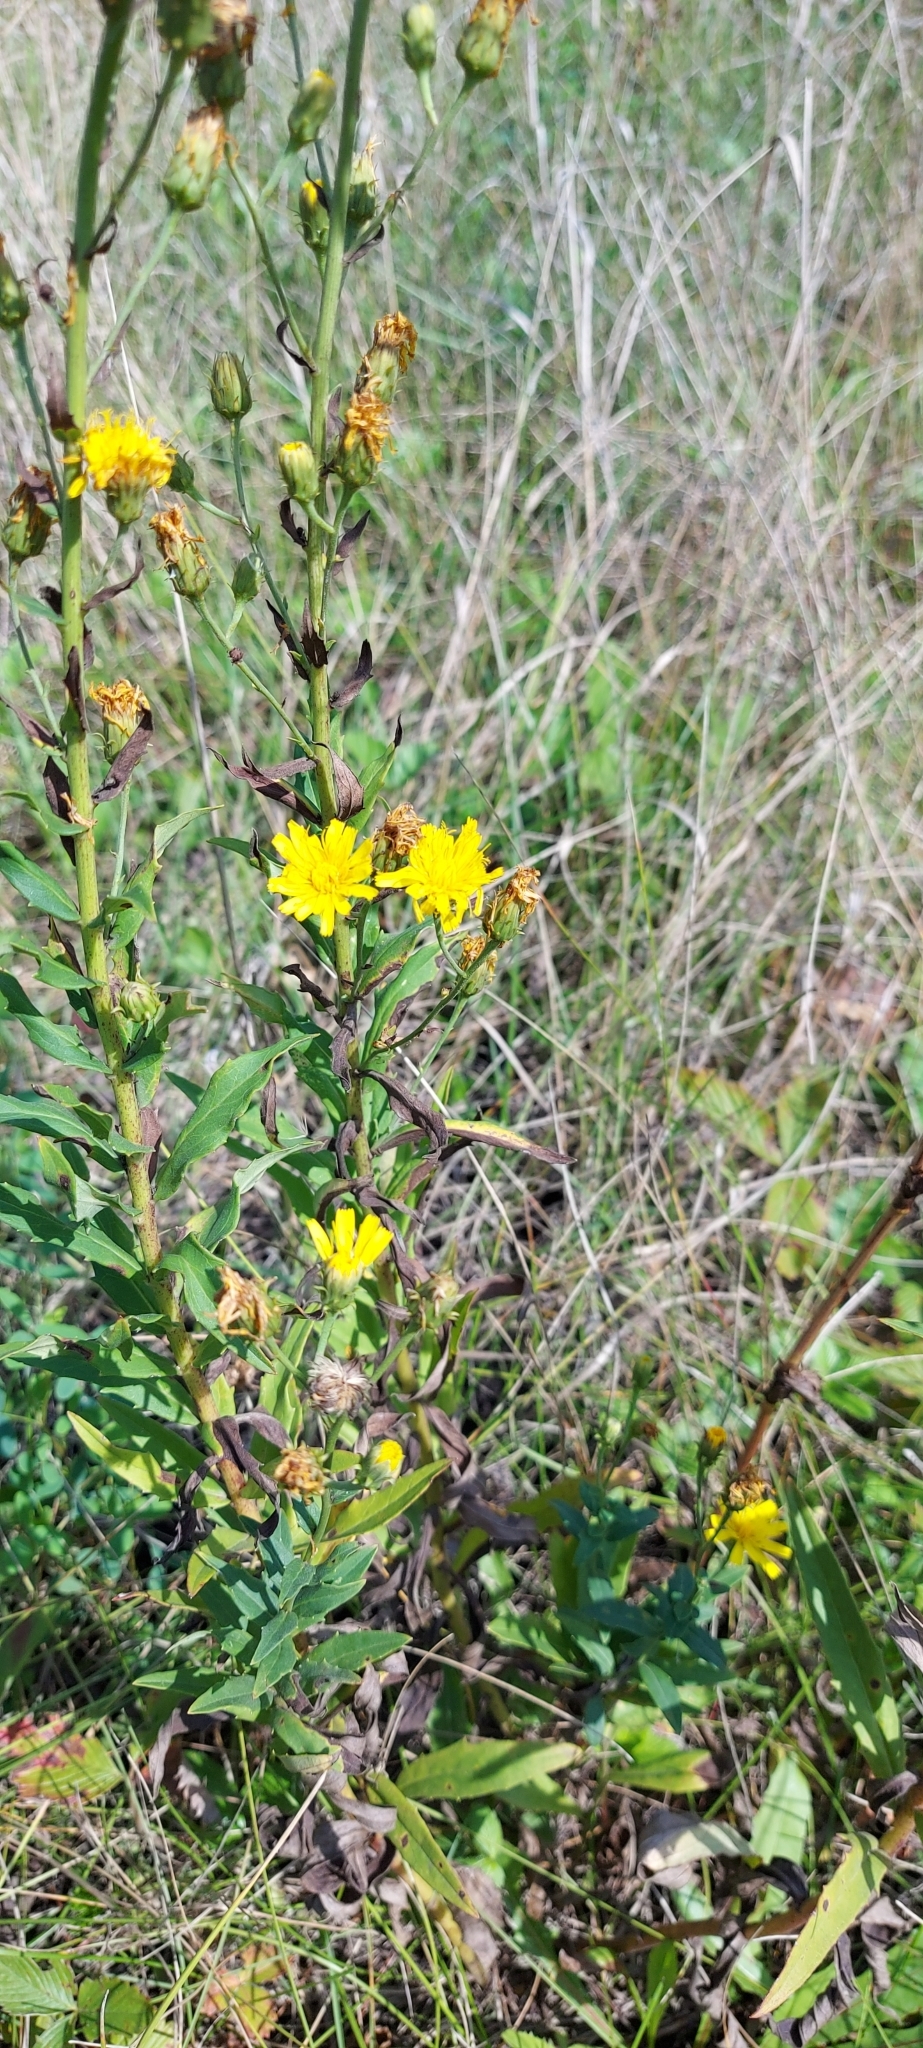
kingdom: Plantae
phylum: Tracheophyta
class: Magnoliopsida
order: Asterales
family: Asteraceae
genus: Hieracium
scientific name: Hieracium umbellatum
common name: Northern hawkweed
